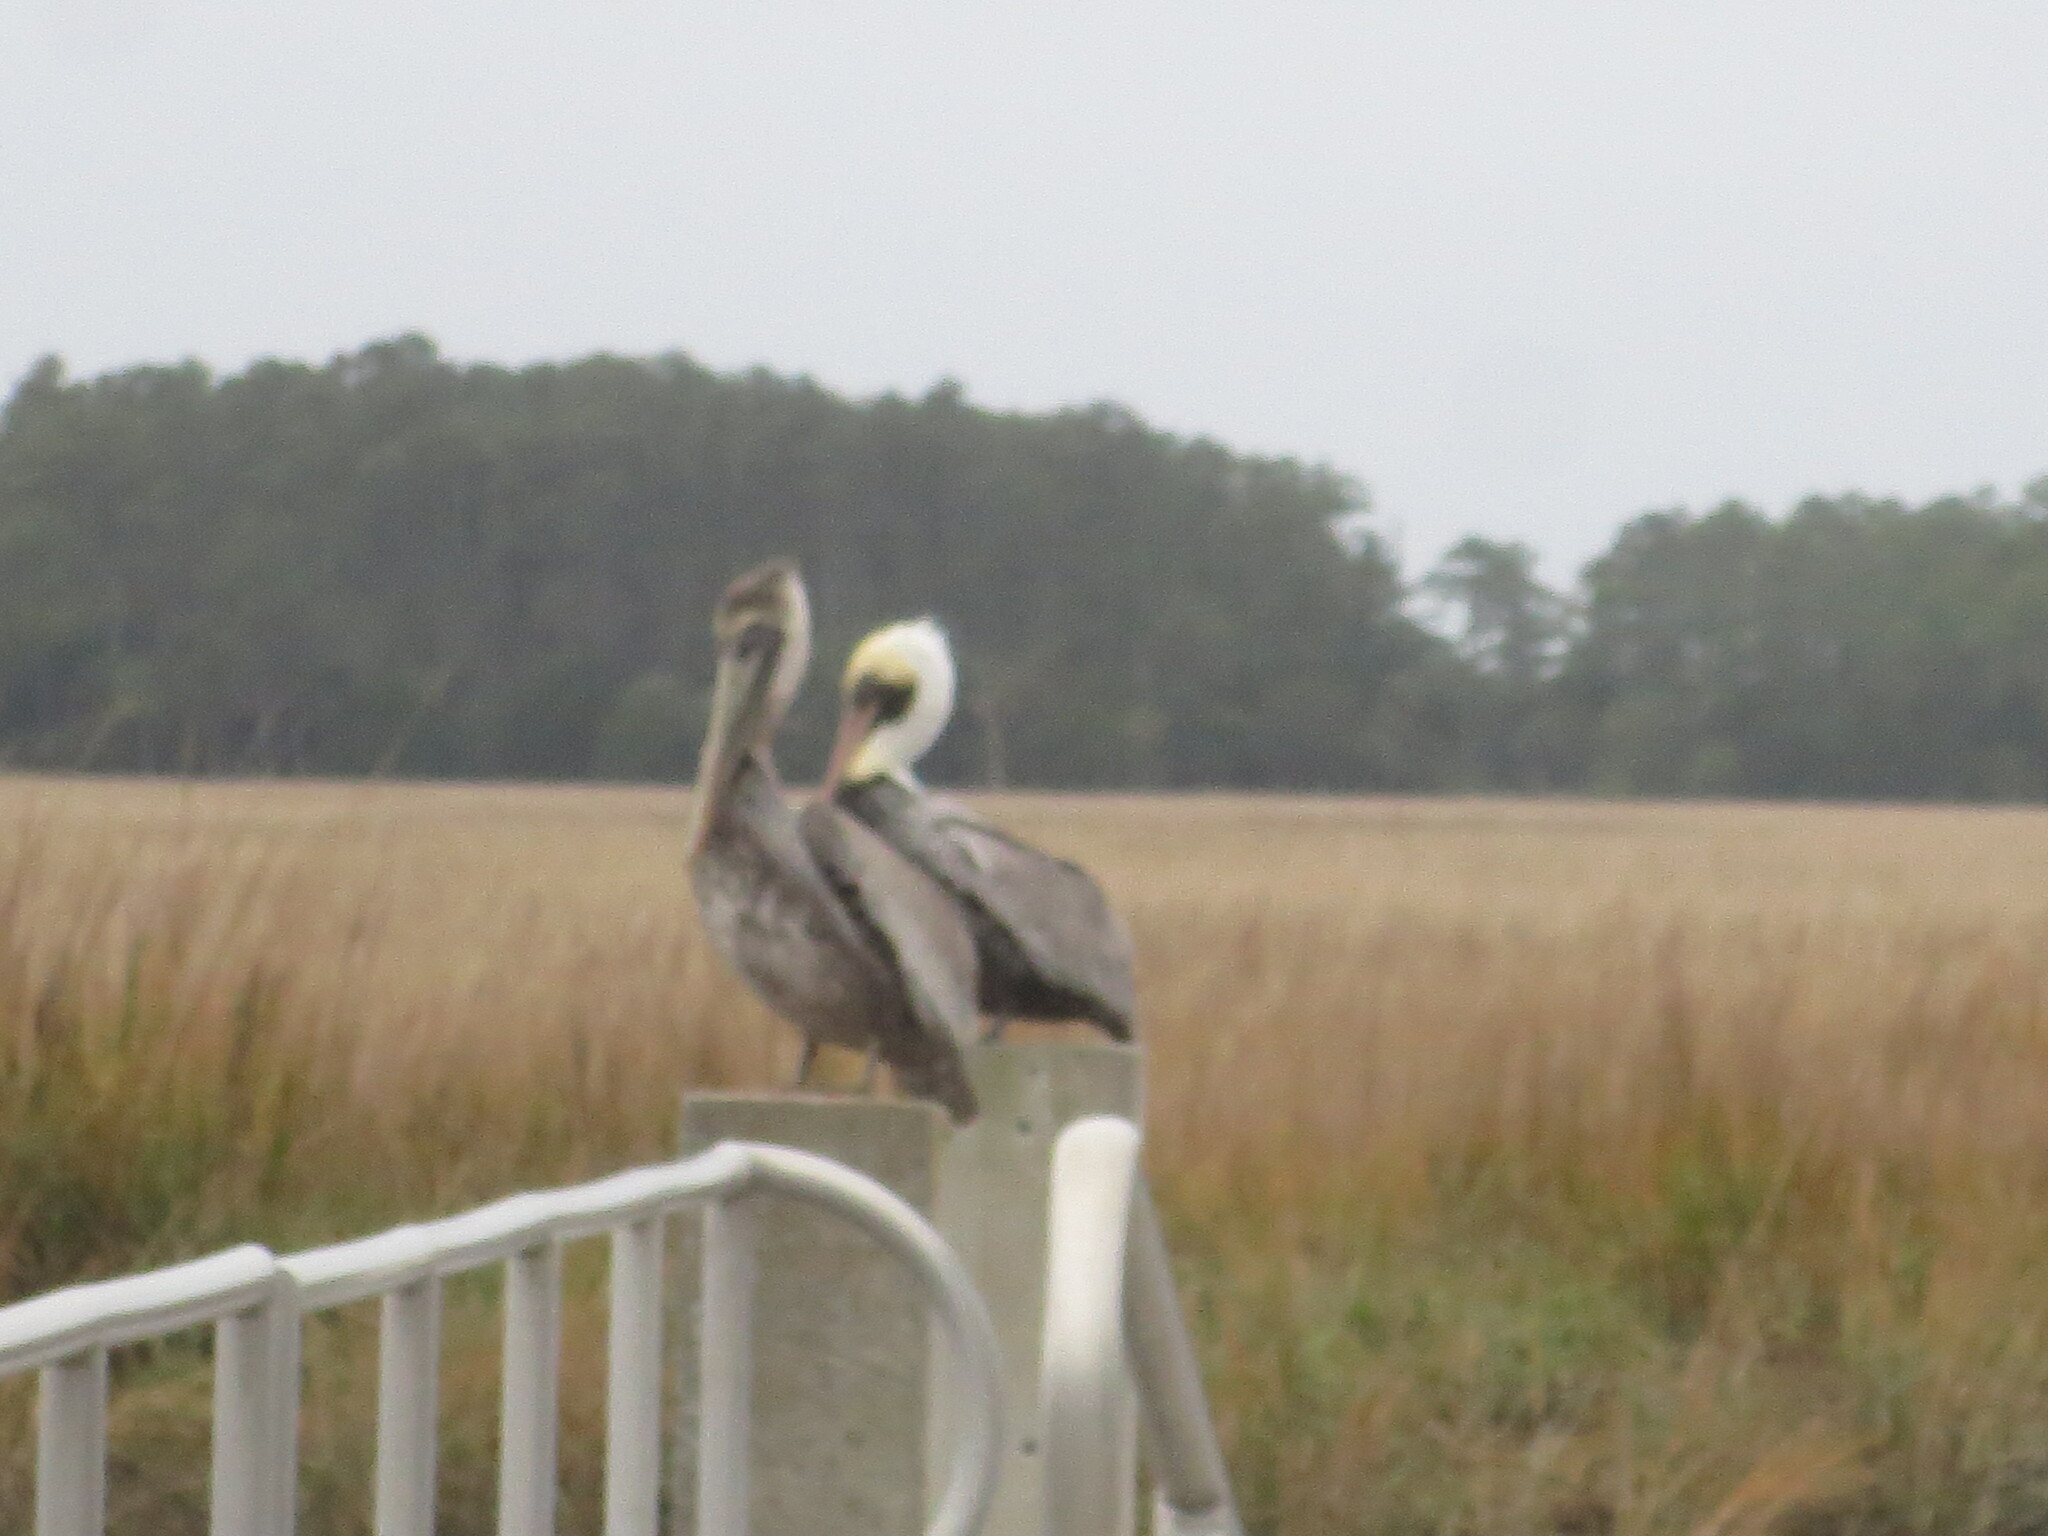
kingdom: Animalia
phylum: Chordata
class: Aves
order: Pelecaniformes
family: Pelecanidae
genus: Pelecanus
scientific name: Pelecanus occidentalis
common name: Brown pelican
